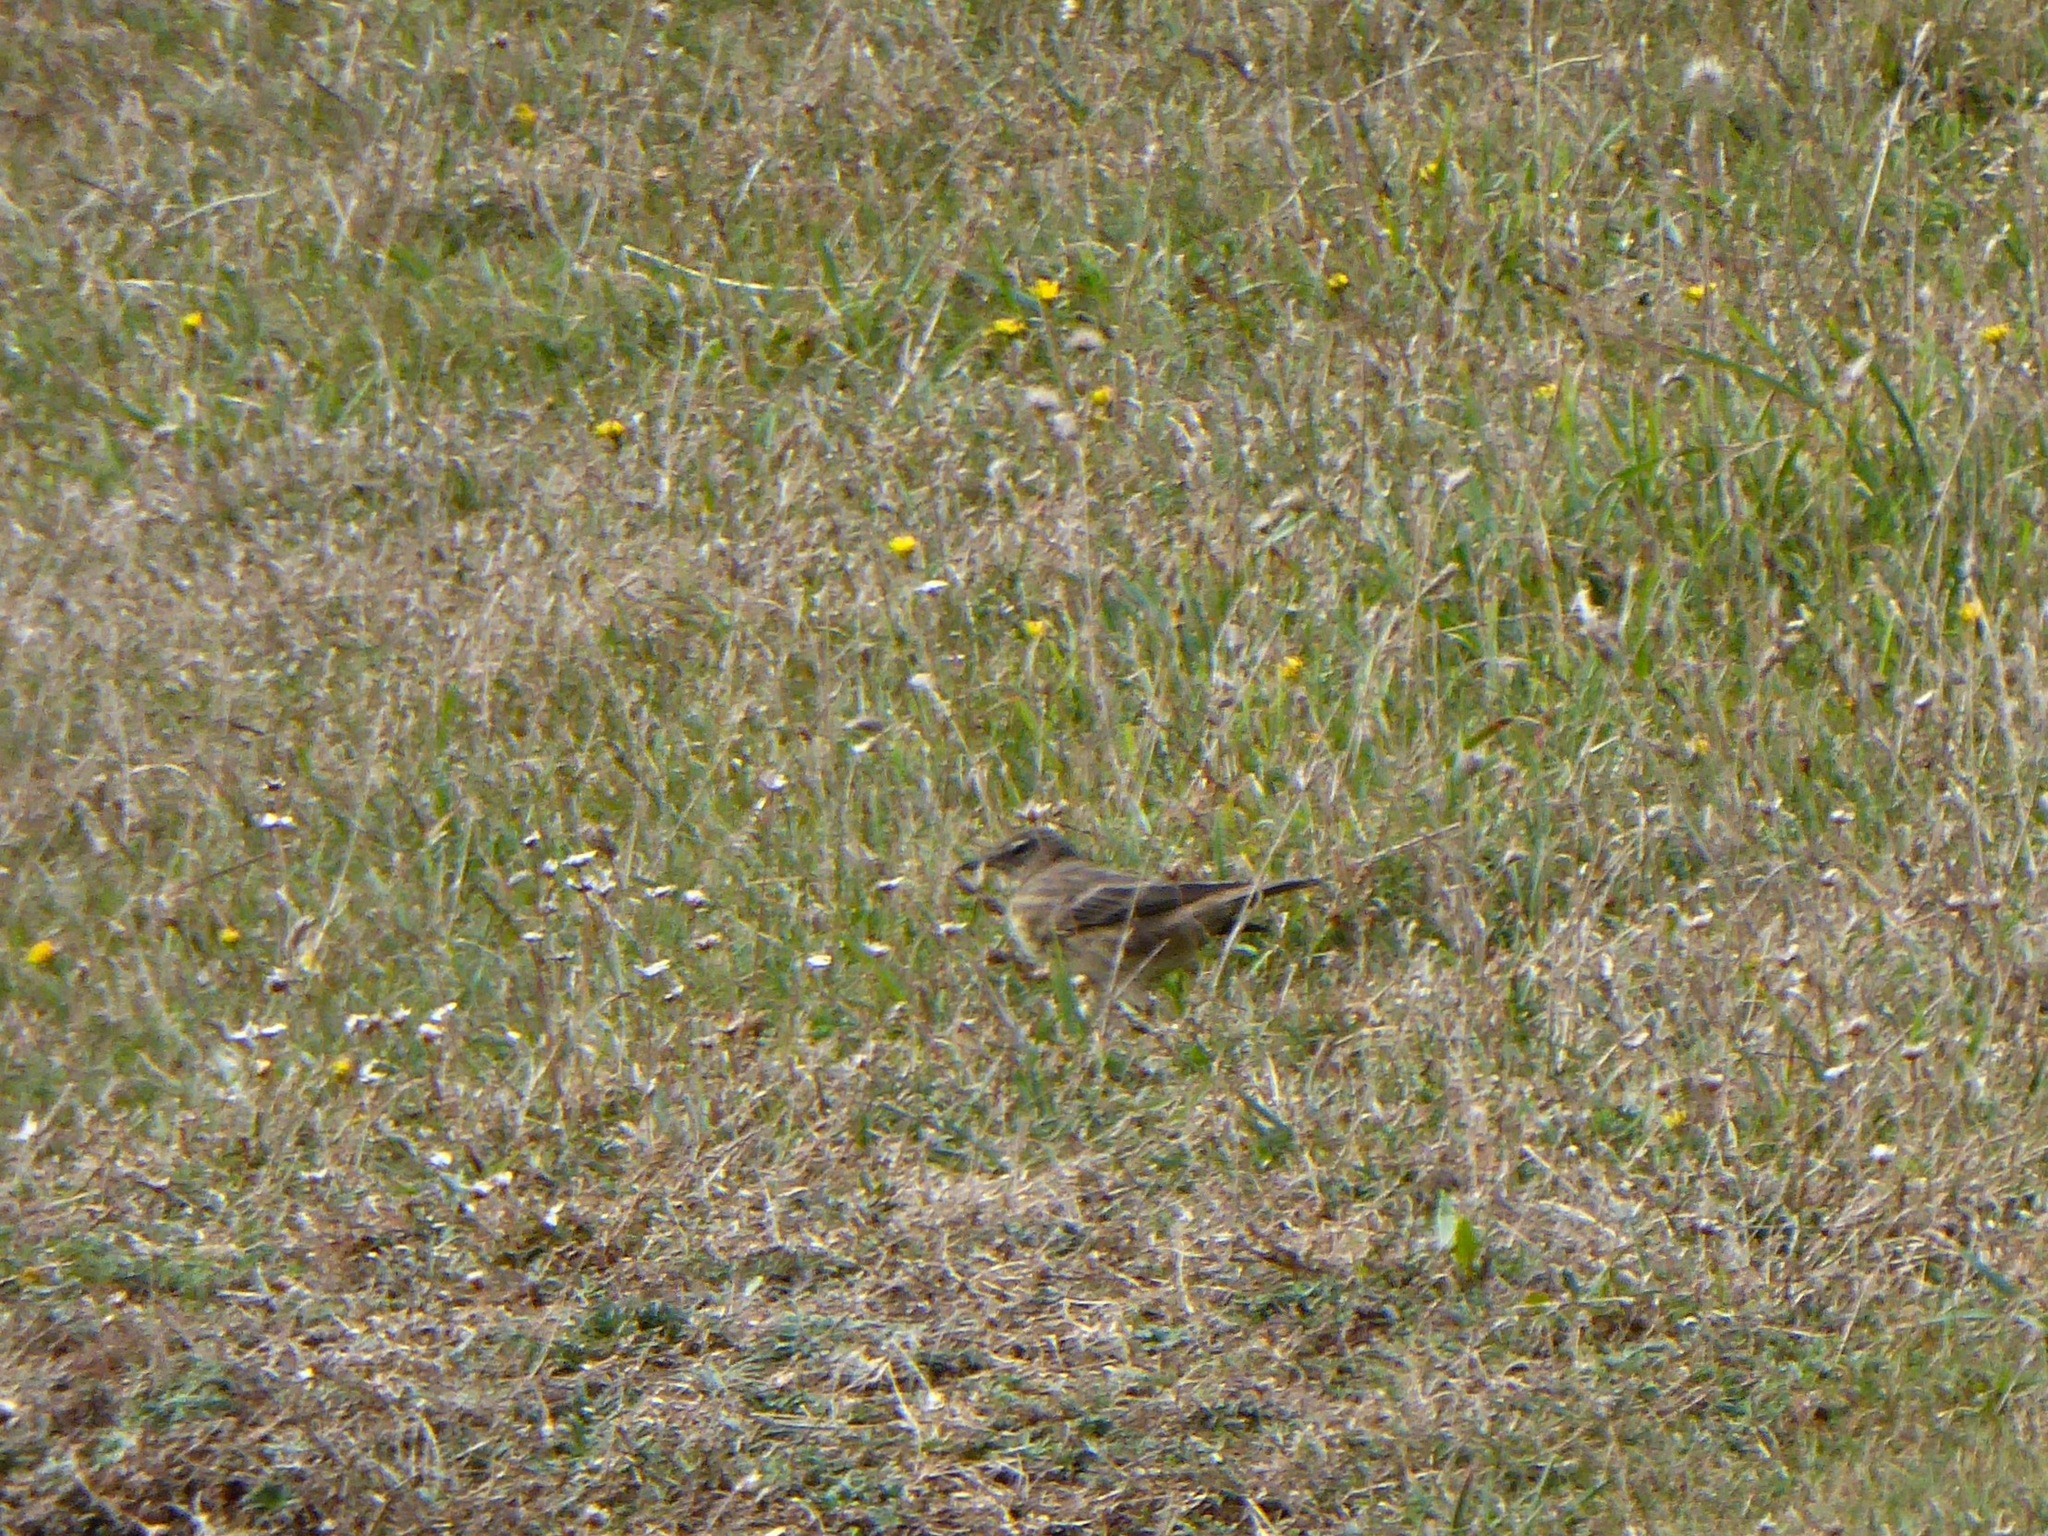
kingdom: Animalia
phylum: Chordata
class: Aves
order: Passeriformes
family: Motacillidae
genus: Anthus
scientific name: Anthus petrosus
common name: Eurasian rock pipit
